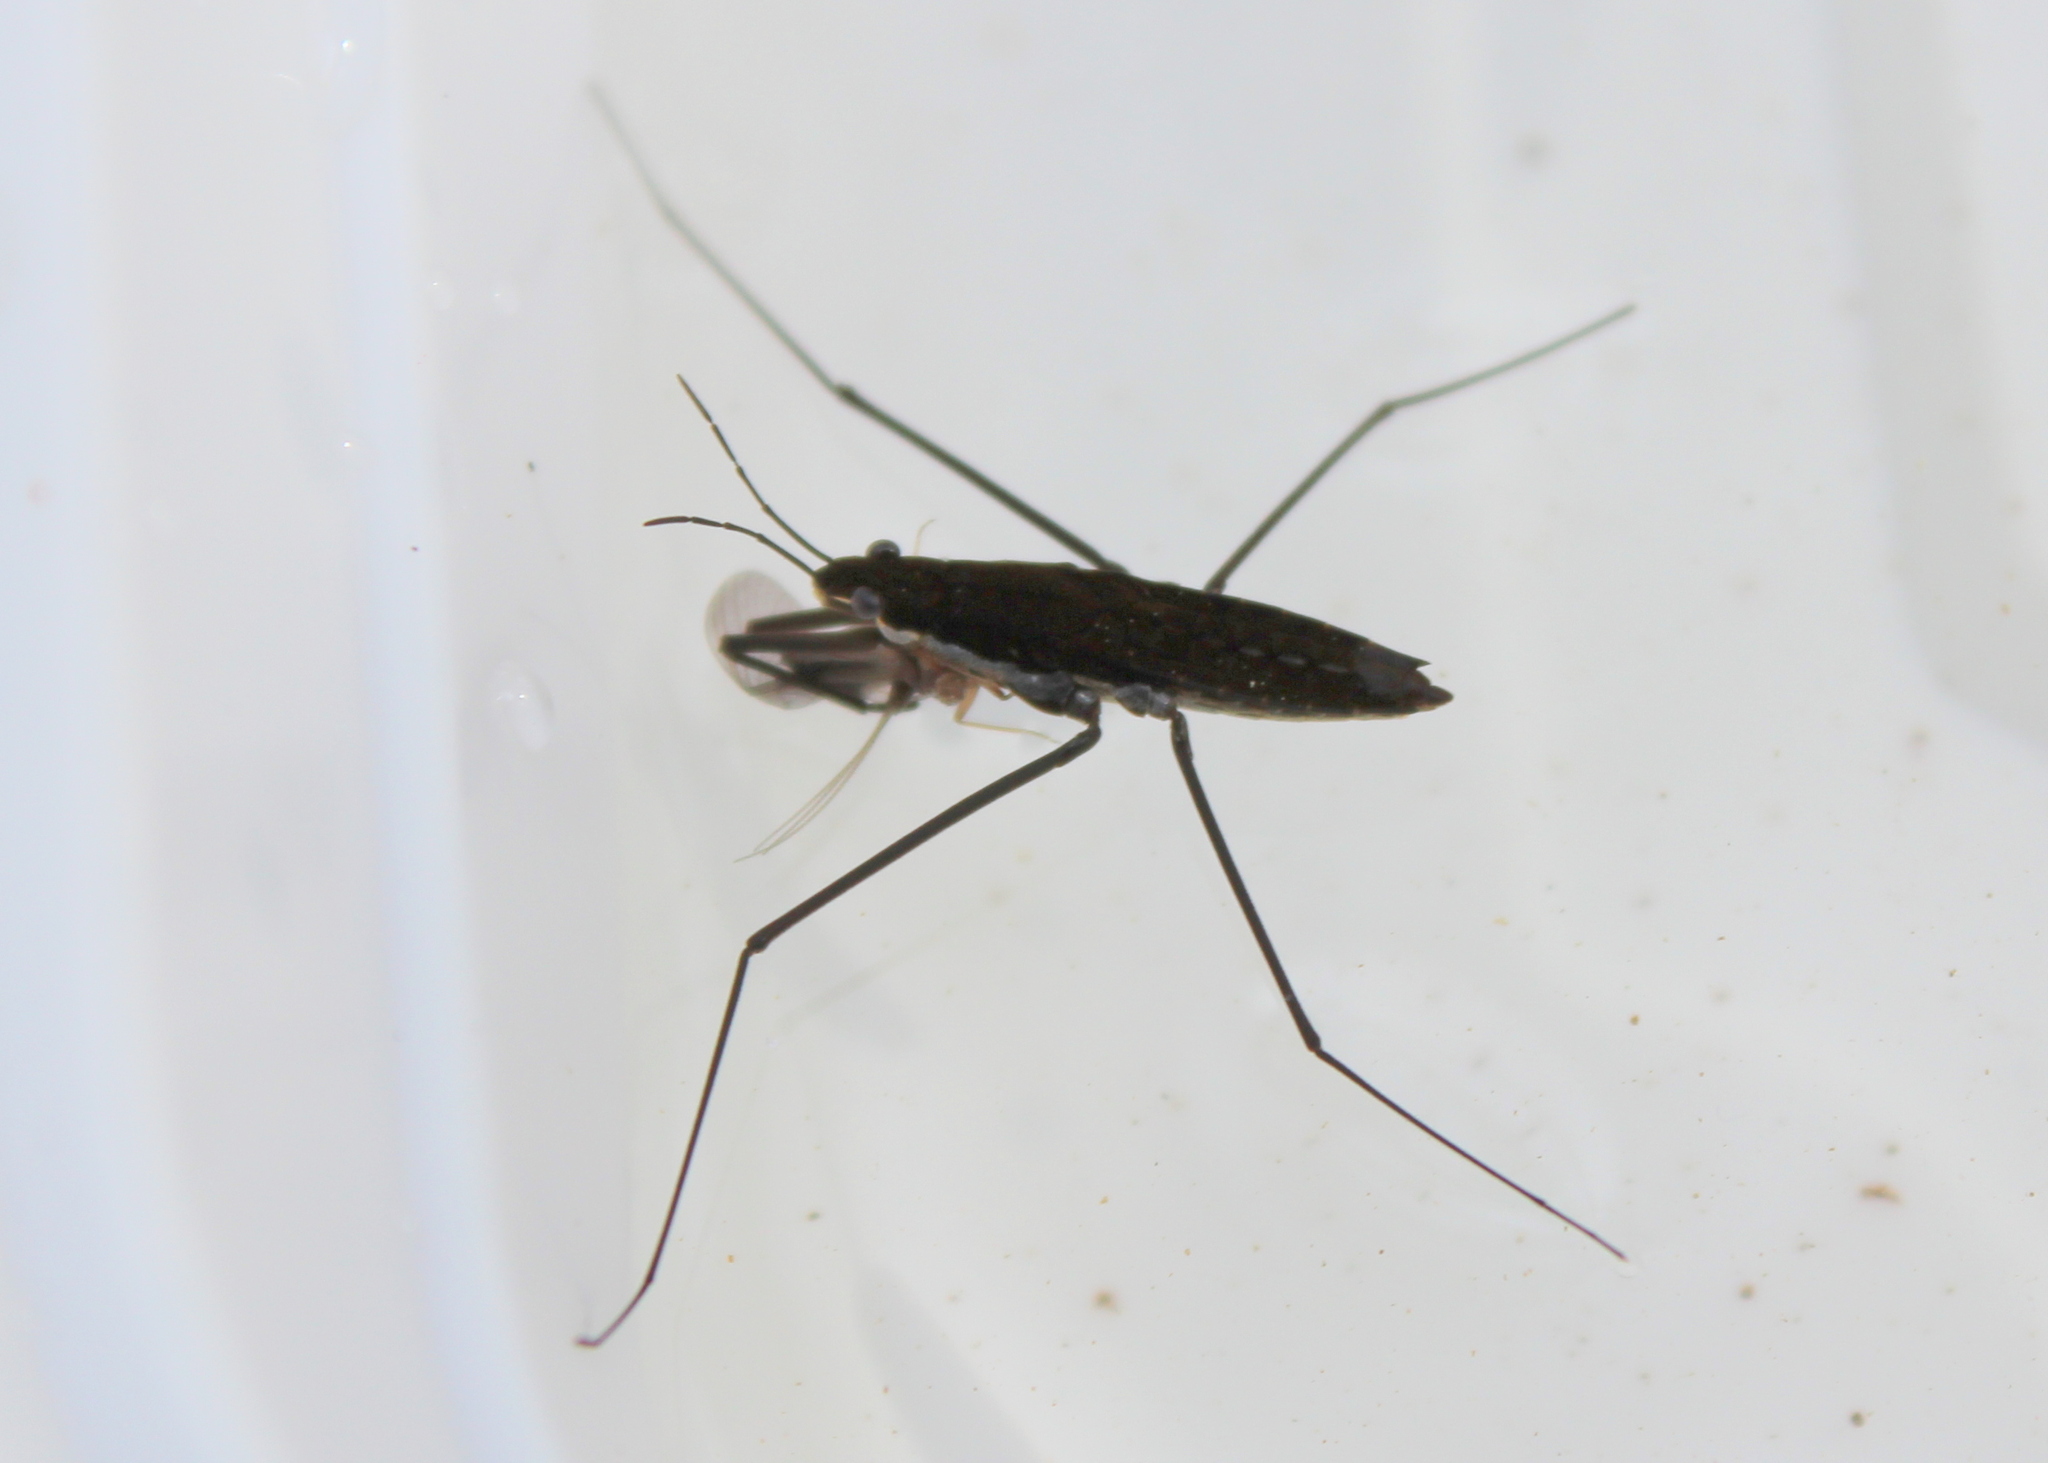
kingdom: Animalia
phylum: Arthropoda
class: Insecta
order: Hemiptera
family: Gerridae
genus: Aquarius
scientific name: Aquarius remigis
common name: Common water strider
